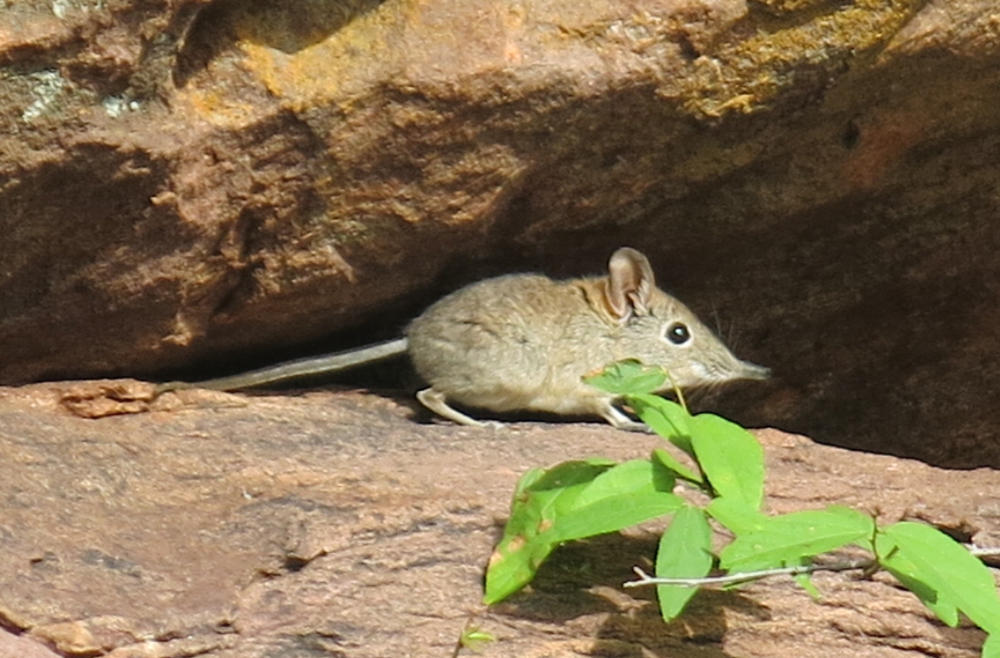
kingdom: Animalia
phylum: Chordata
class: Mammalia
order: Macroscelidea
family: Macroscelididae
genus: Elephantulus
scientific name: Elephantulus myurus
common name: Eastern rock elephant shrew
